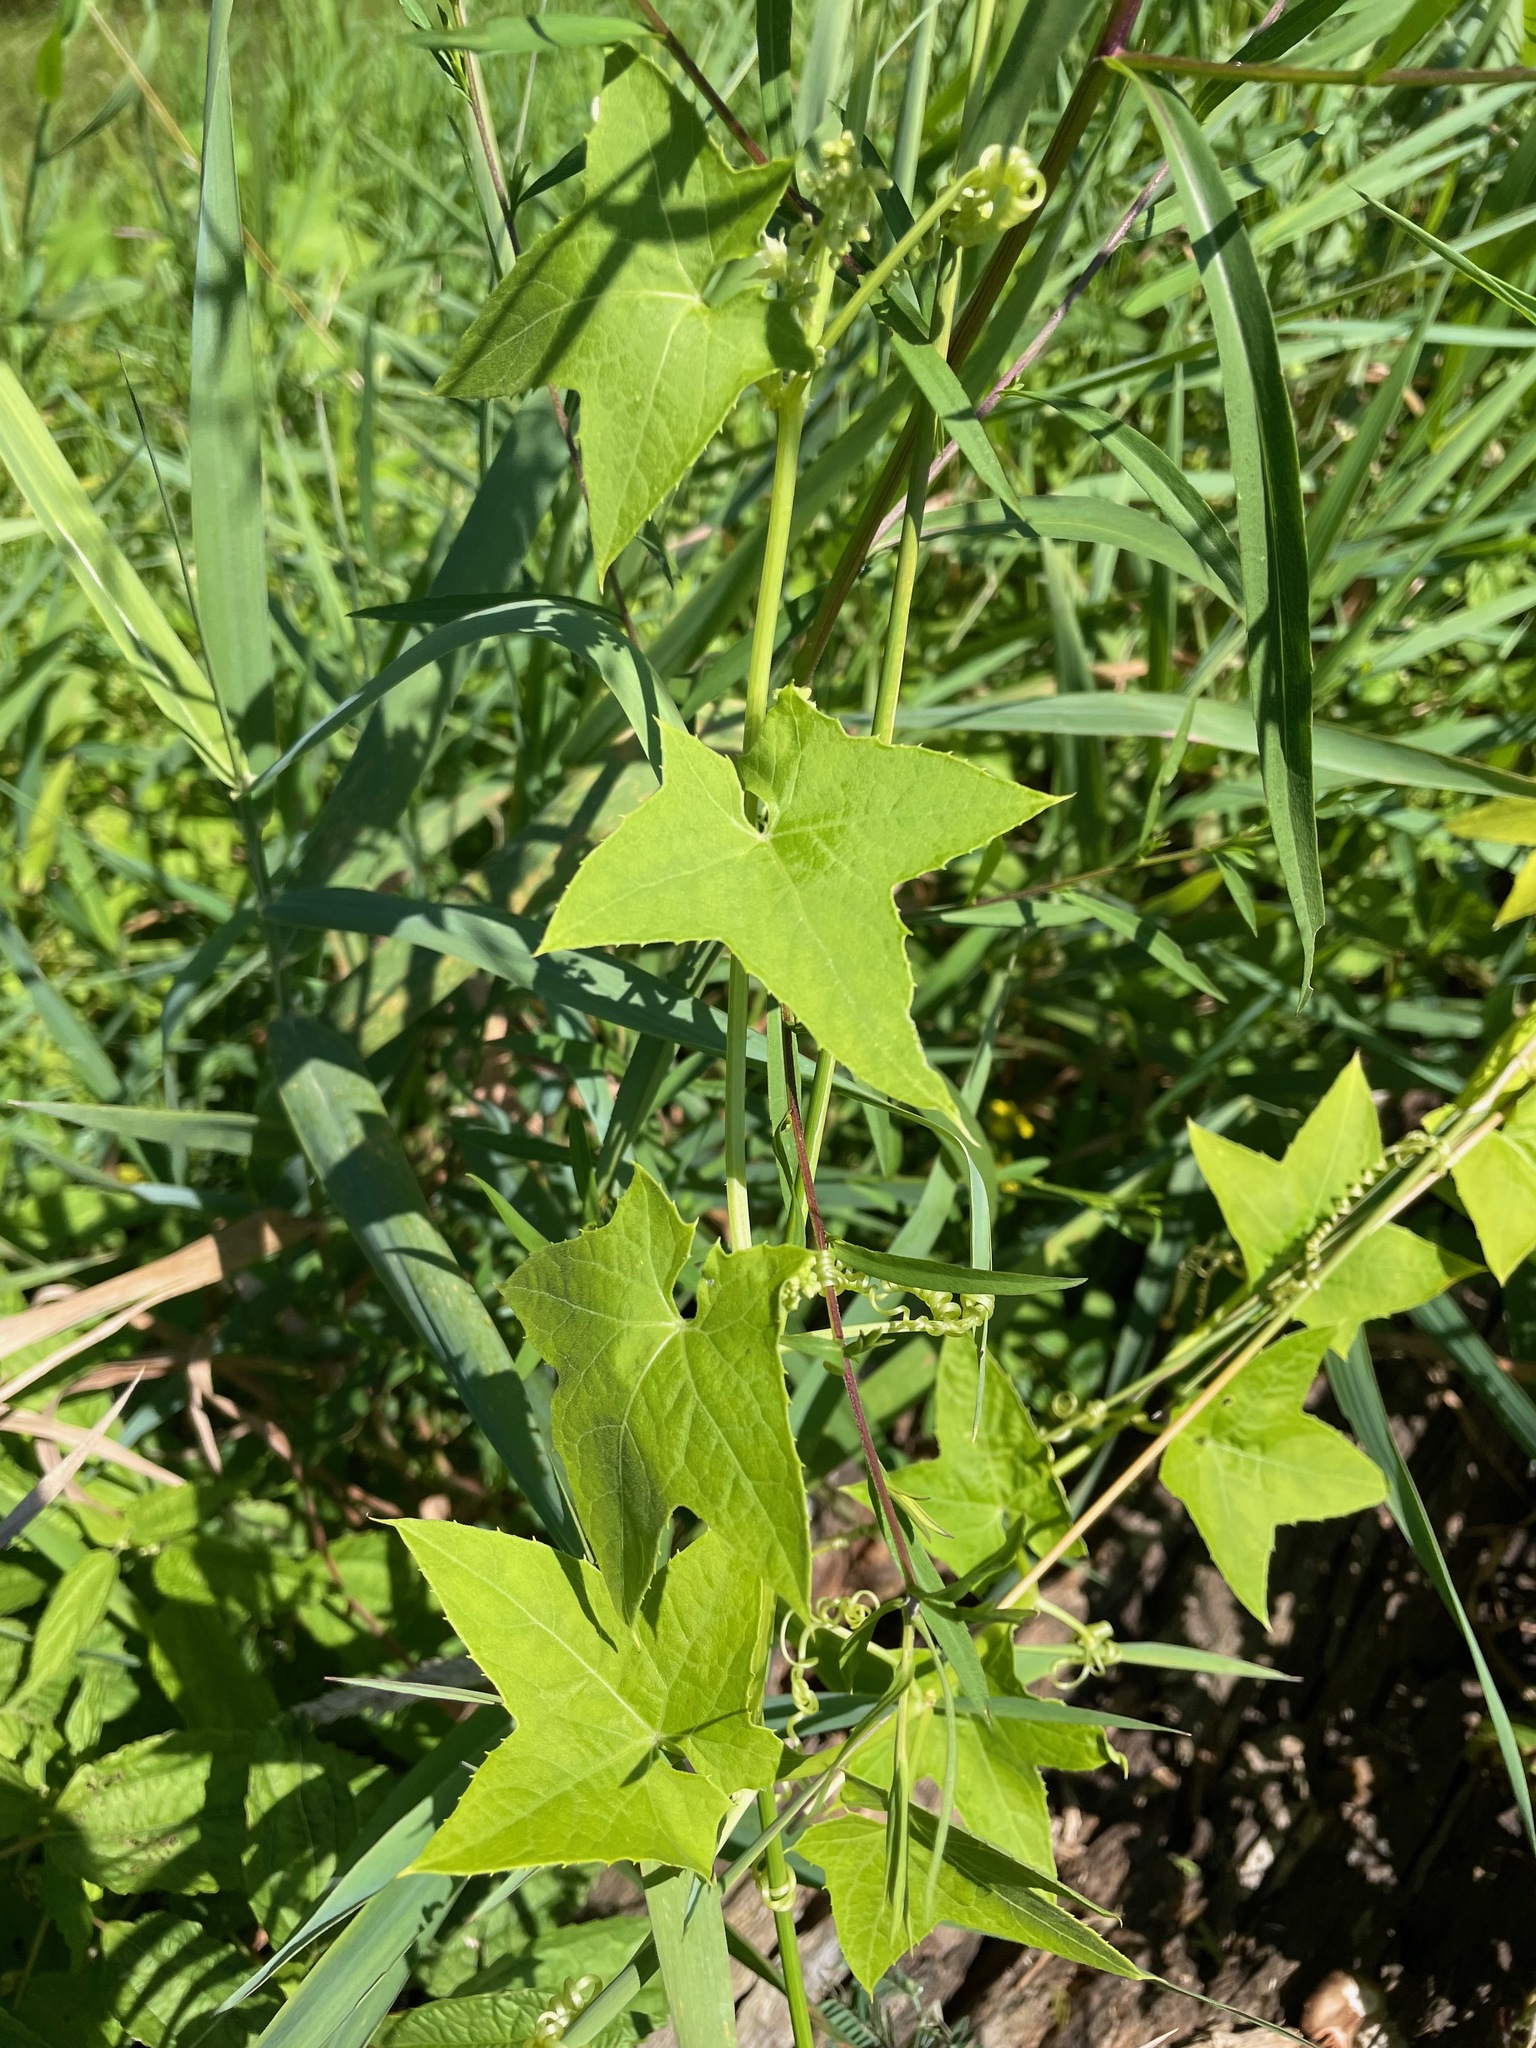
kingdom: Plantae
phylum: Tracheophyta
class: Magnoliopsida
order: Cucurbitales
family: Cucurbitaceae
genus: Echinocystis
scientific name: Echinocystis lobata
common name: Wild cucumber
